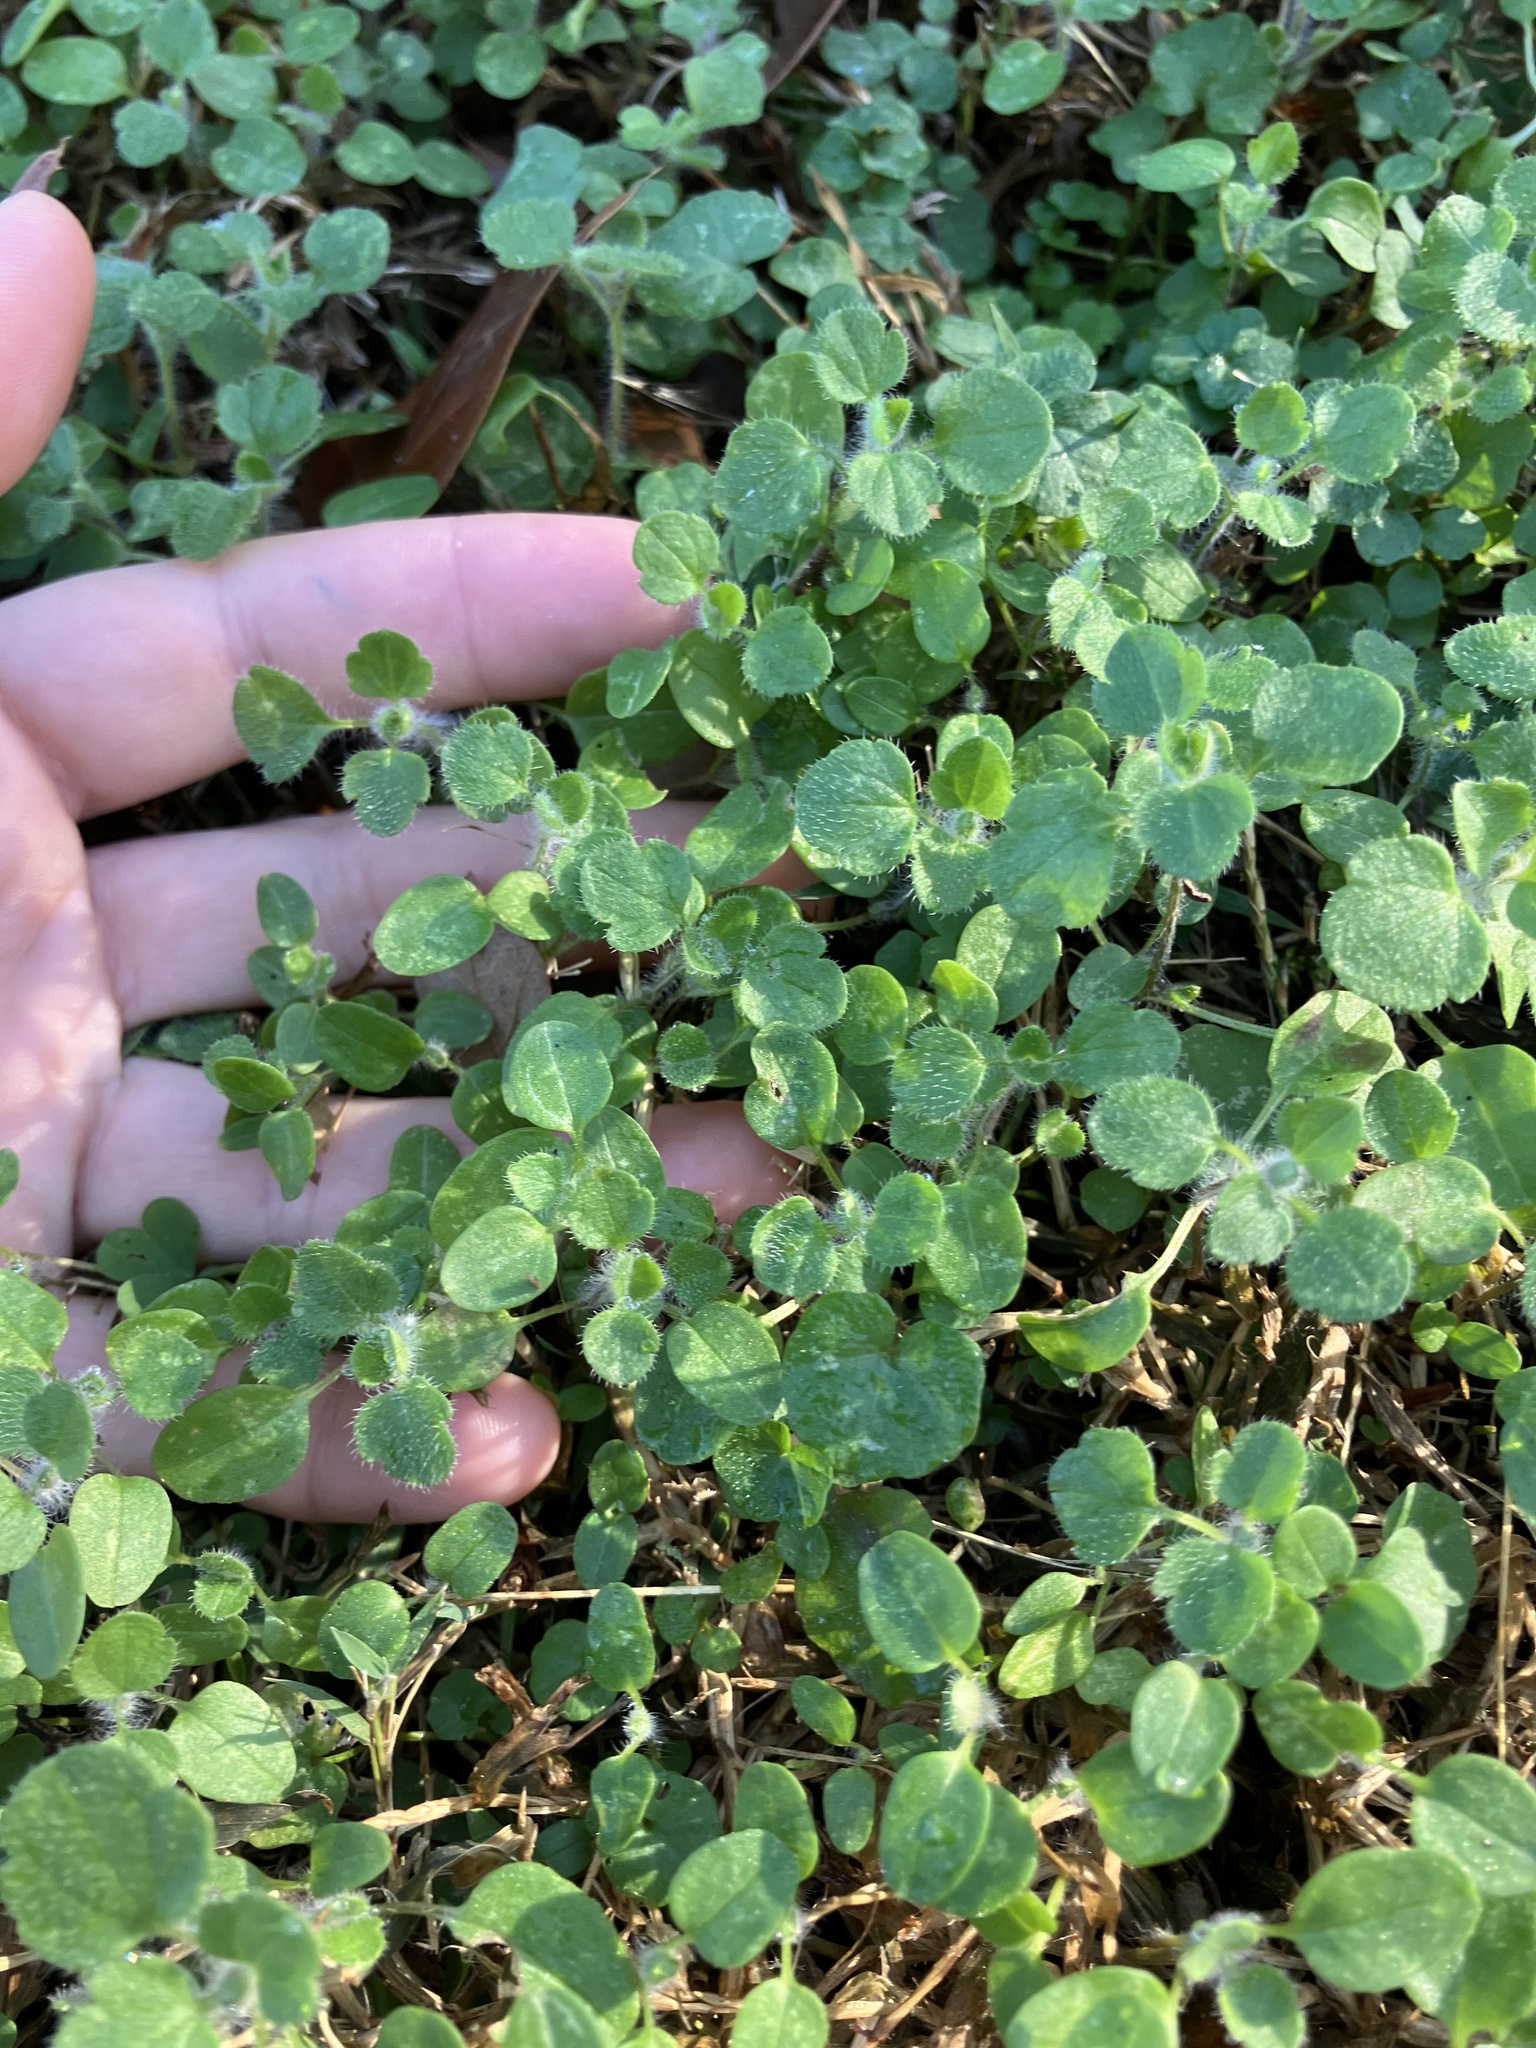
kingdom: Plantae
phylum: Tracheophyta
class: Magnoliopsida
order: Lamiales
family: Plantaginaceae
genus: Veronica
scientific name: Veronica hederifolia
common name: Ivy-leaved speedwell
